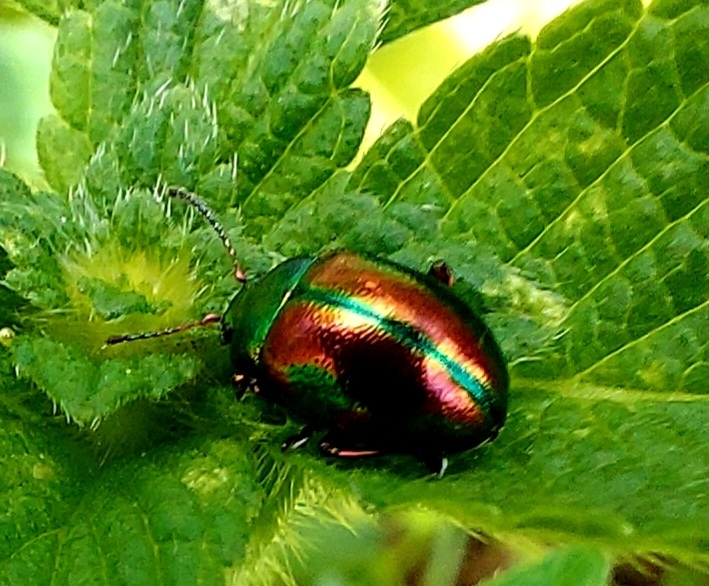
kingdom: Animalia
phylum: Arthropoda
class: Insecta
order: Coleoptera
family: Chrysomelidae
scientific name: Chrysomelidae
